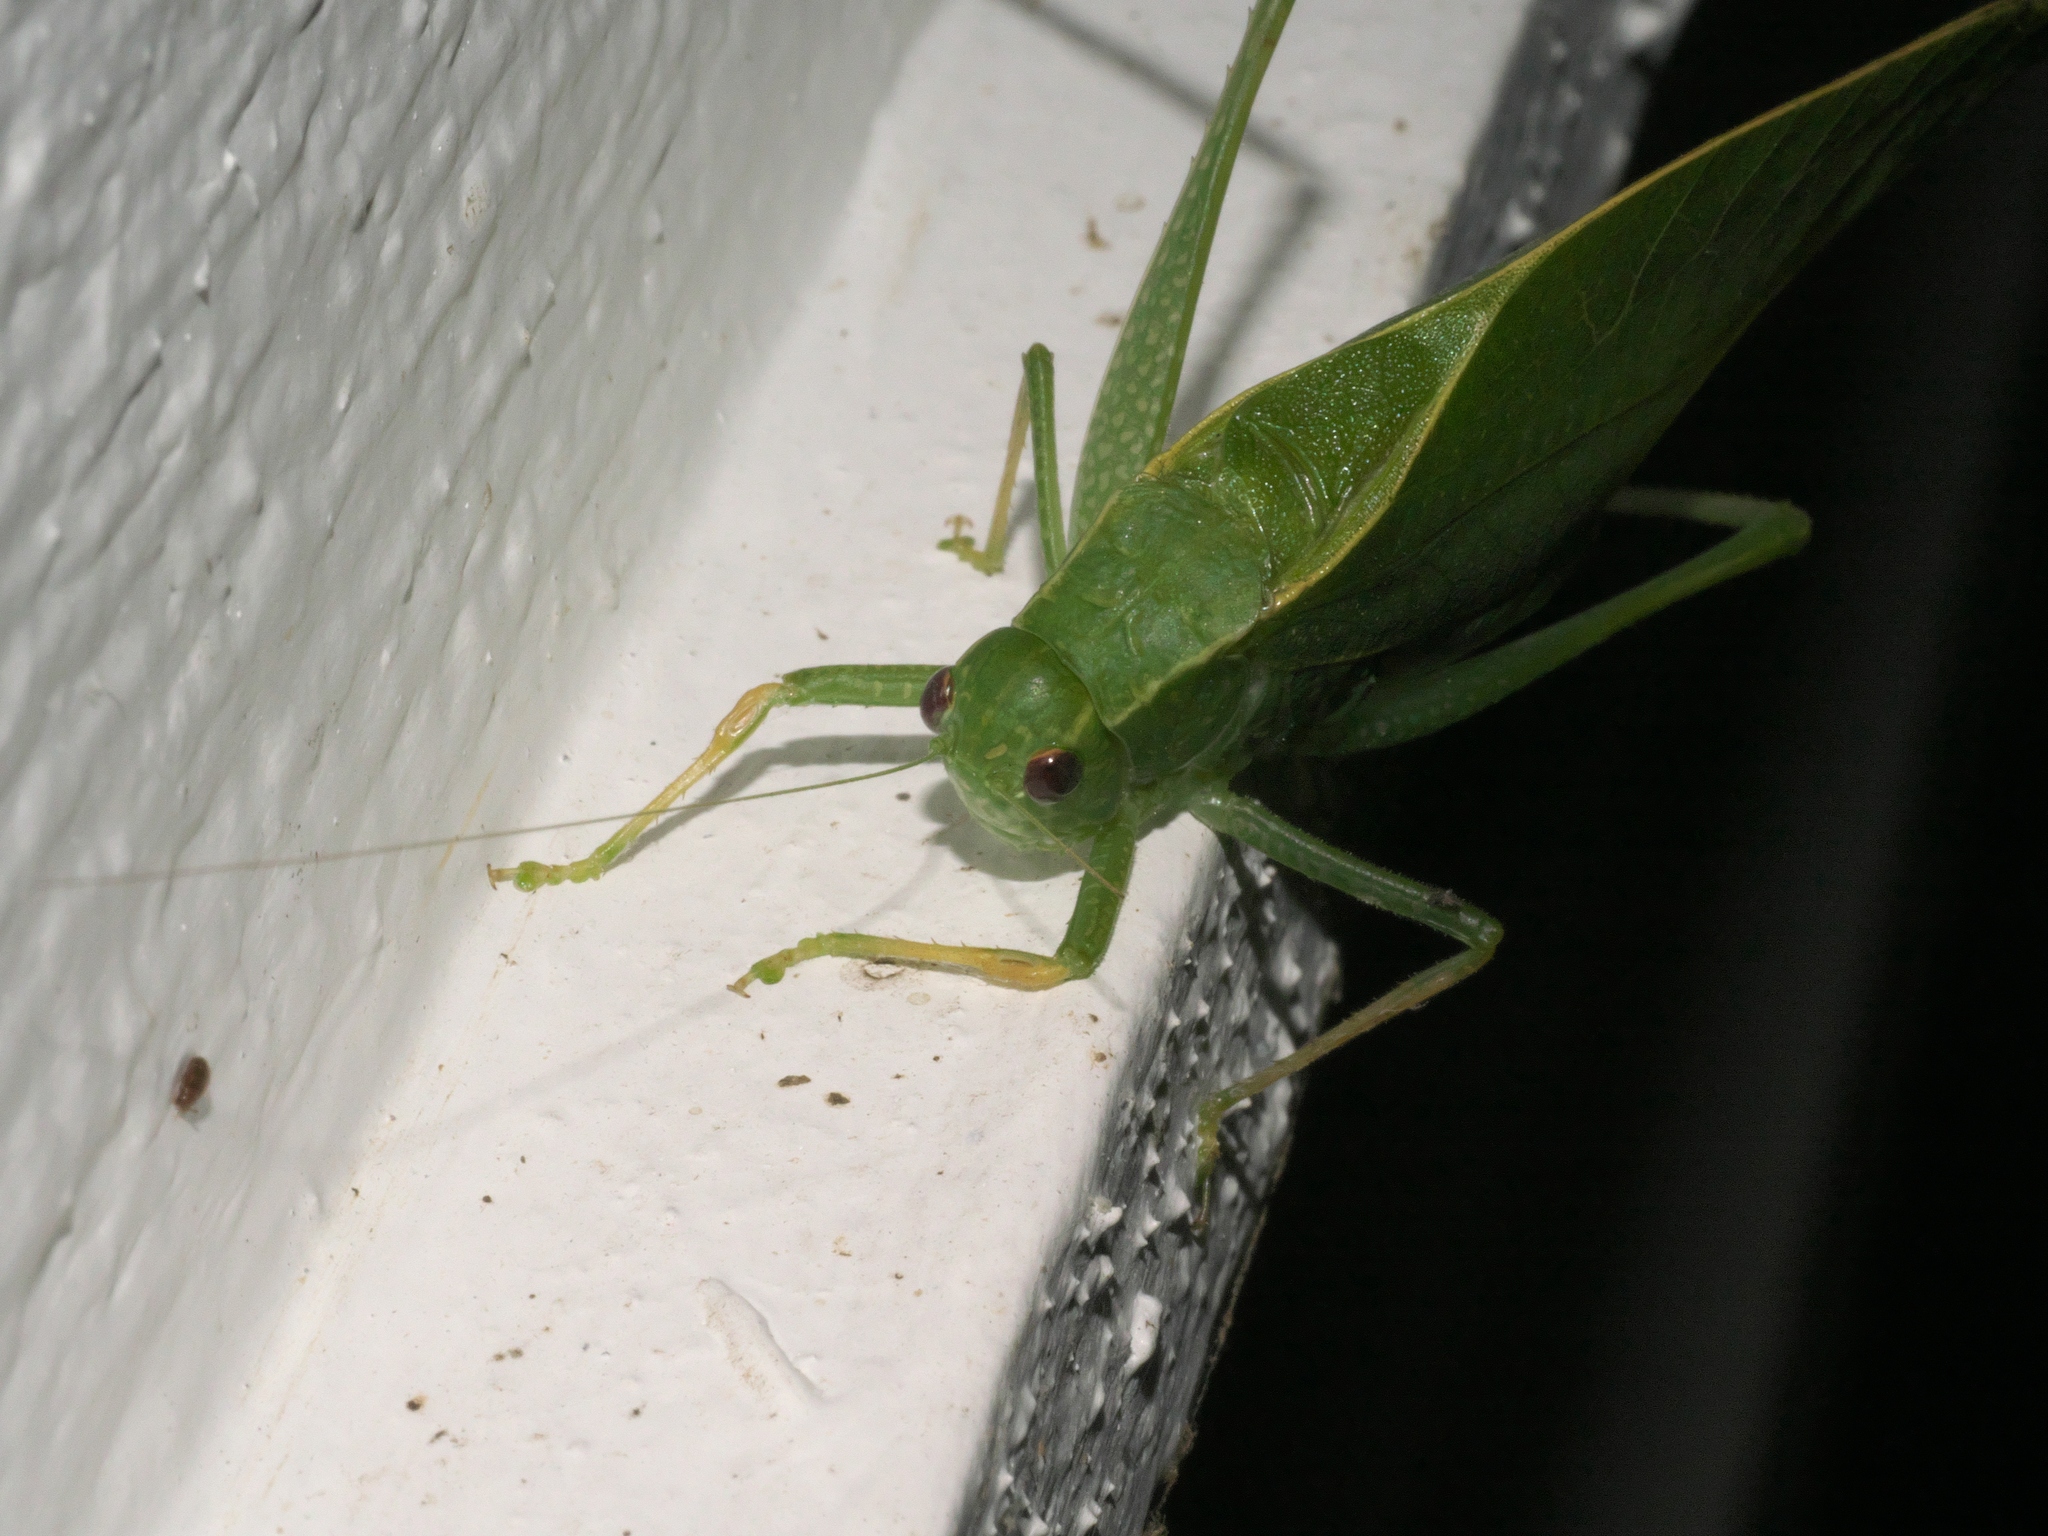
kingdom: Animalia
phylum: Arthropoda
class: Insecta
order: Orthoptera
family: Tettigoniidae
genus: Microcentrum
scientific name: Microcentrum rhombifolium
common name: Broad-winged katydid
